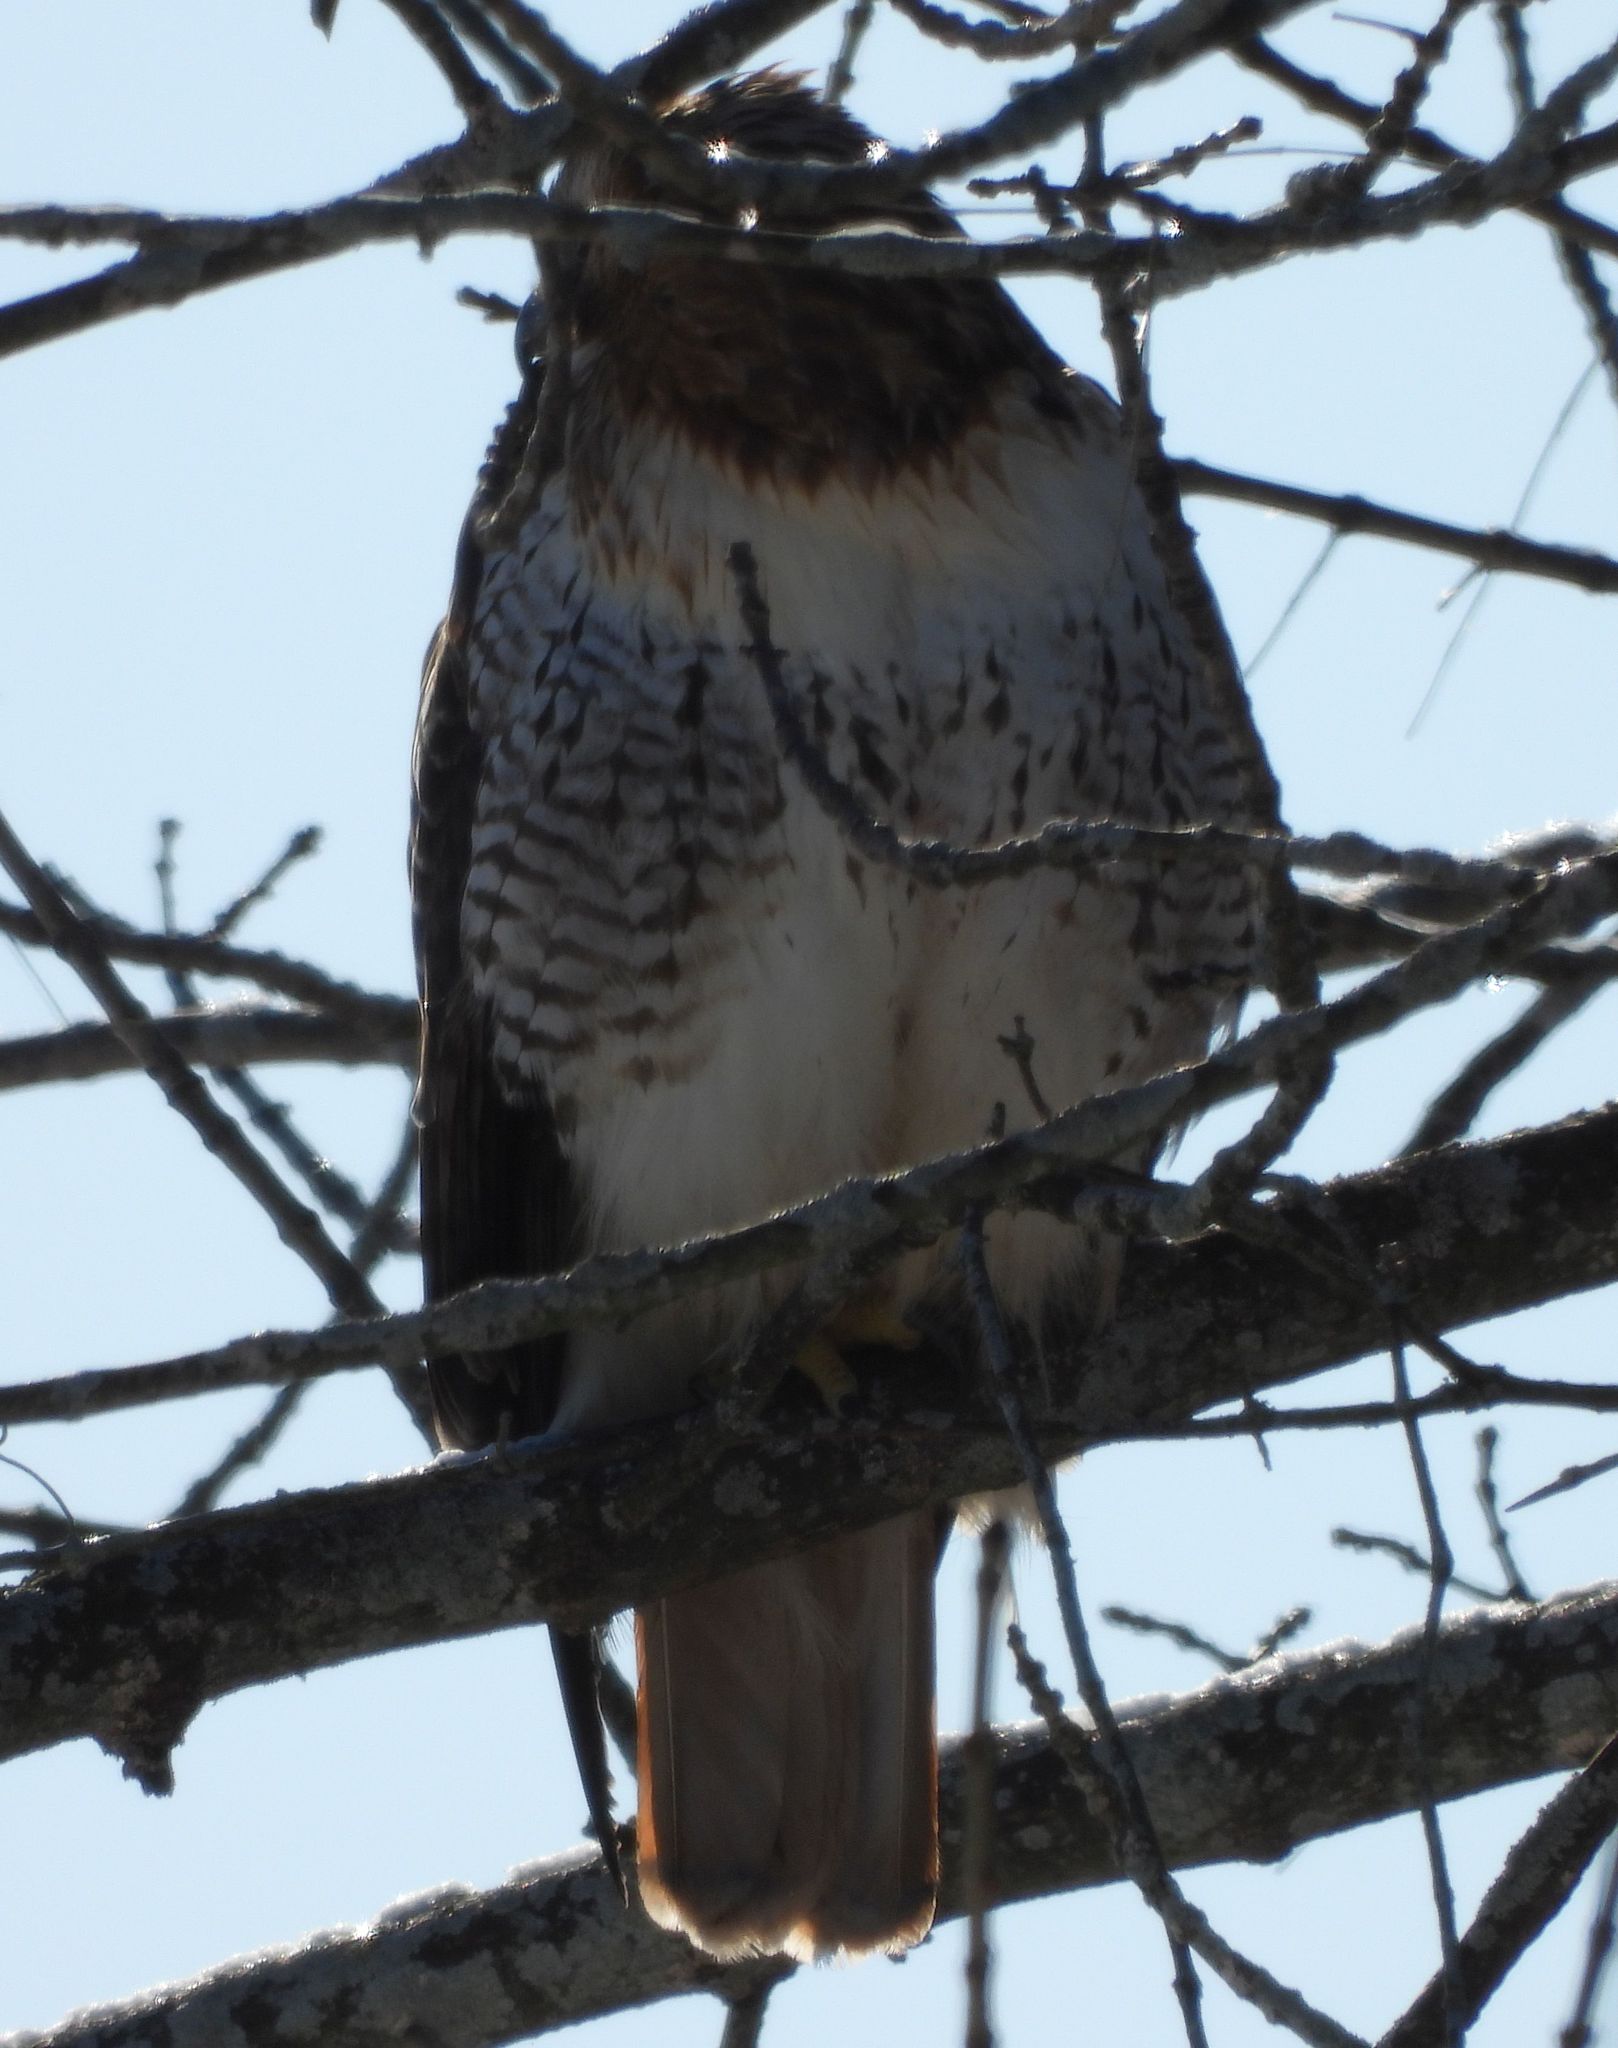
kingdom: Animalia
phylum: Chordata
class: Aves
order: Accipitriformes
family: Accipitridae
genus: Buteo
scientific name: Buteo jamaicensis
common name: Red-tailed hawk
